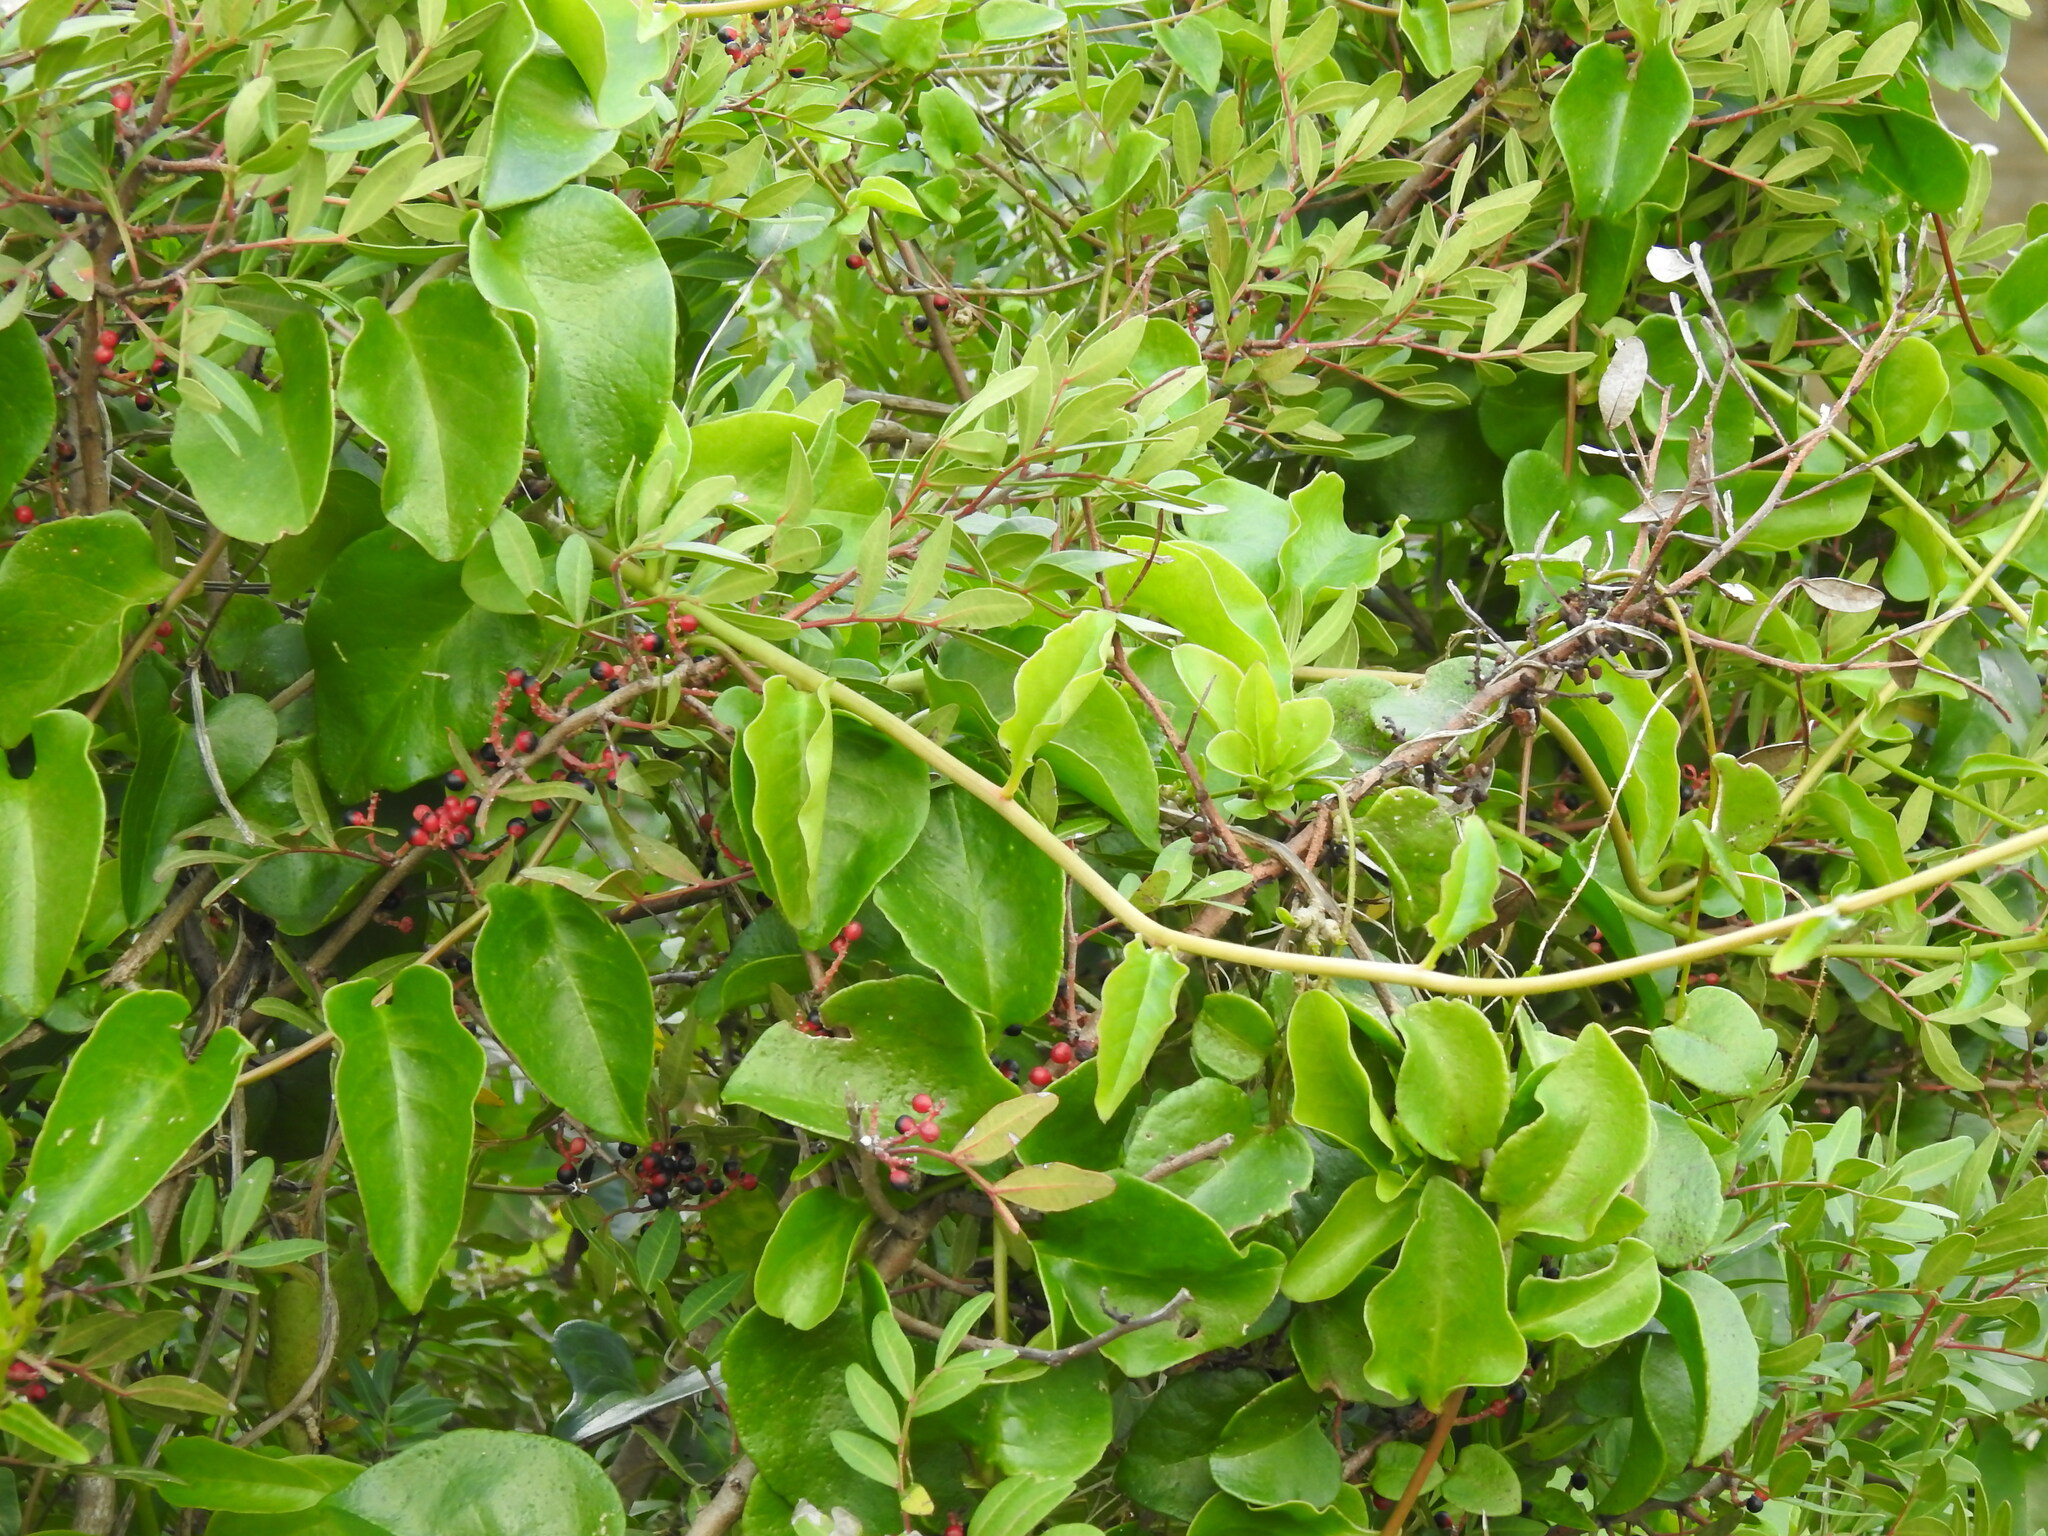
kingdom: Plantae
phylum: Tracheophyta
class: Magnoliopsida
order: Caryophyllales
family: Basellaceae
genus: Anredera
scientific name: Anredera cordifolia
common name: Heartleaf madeiravine
